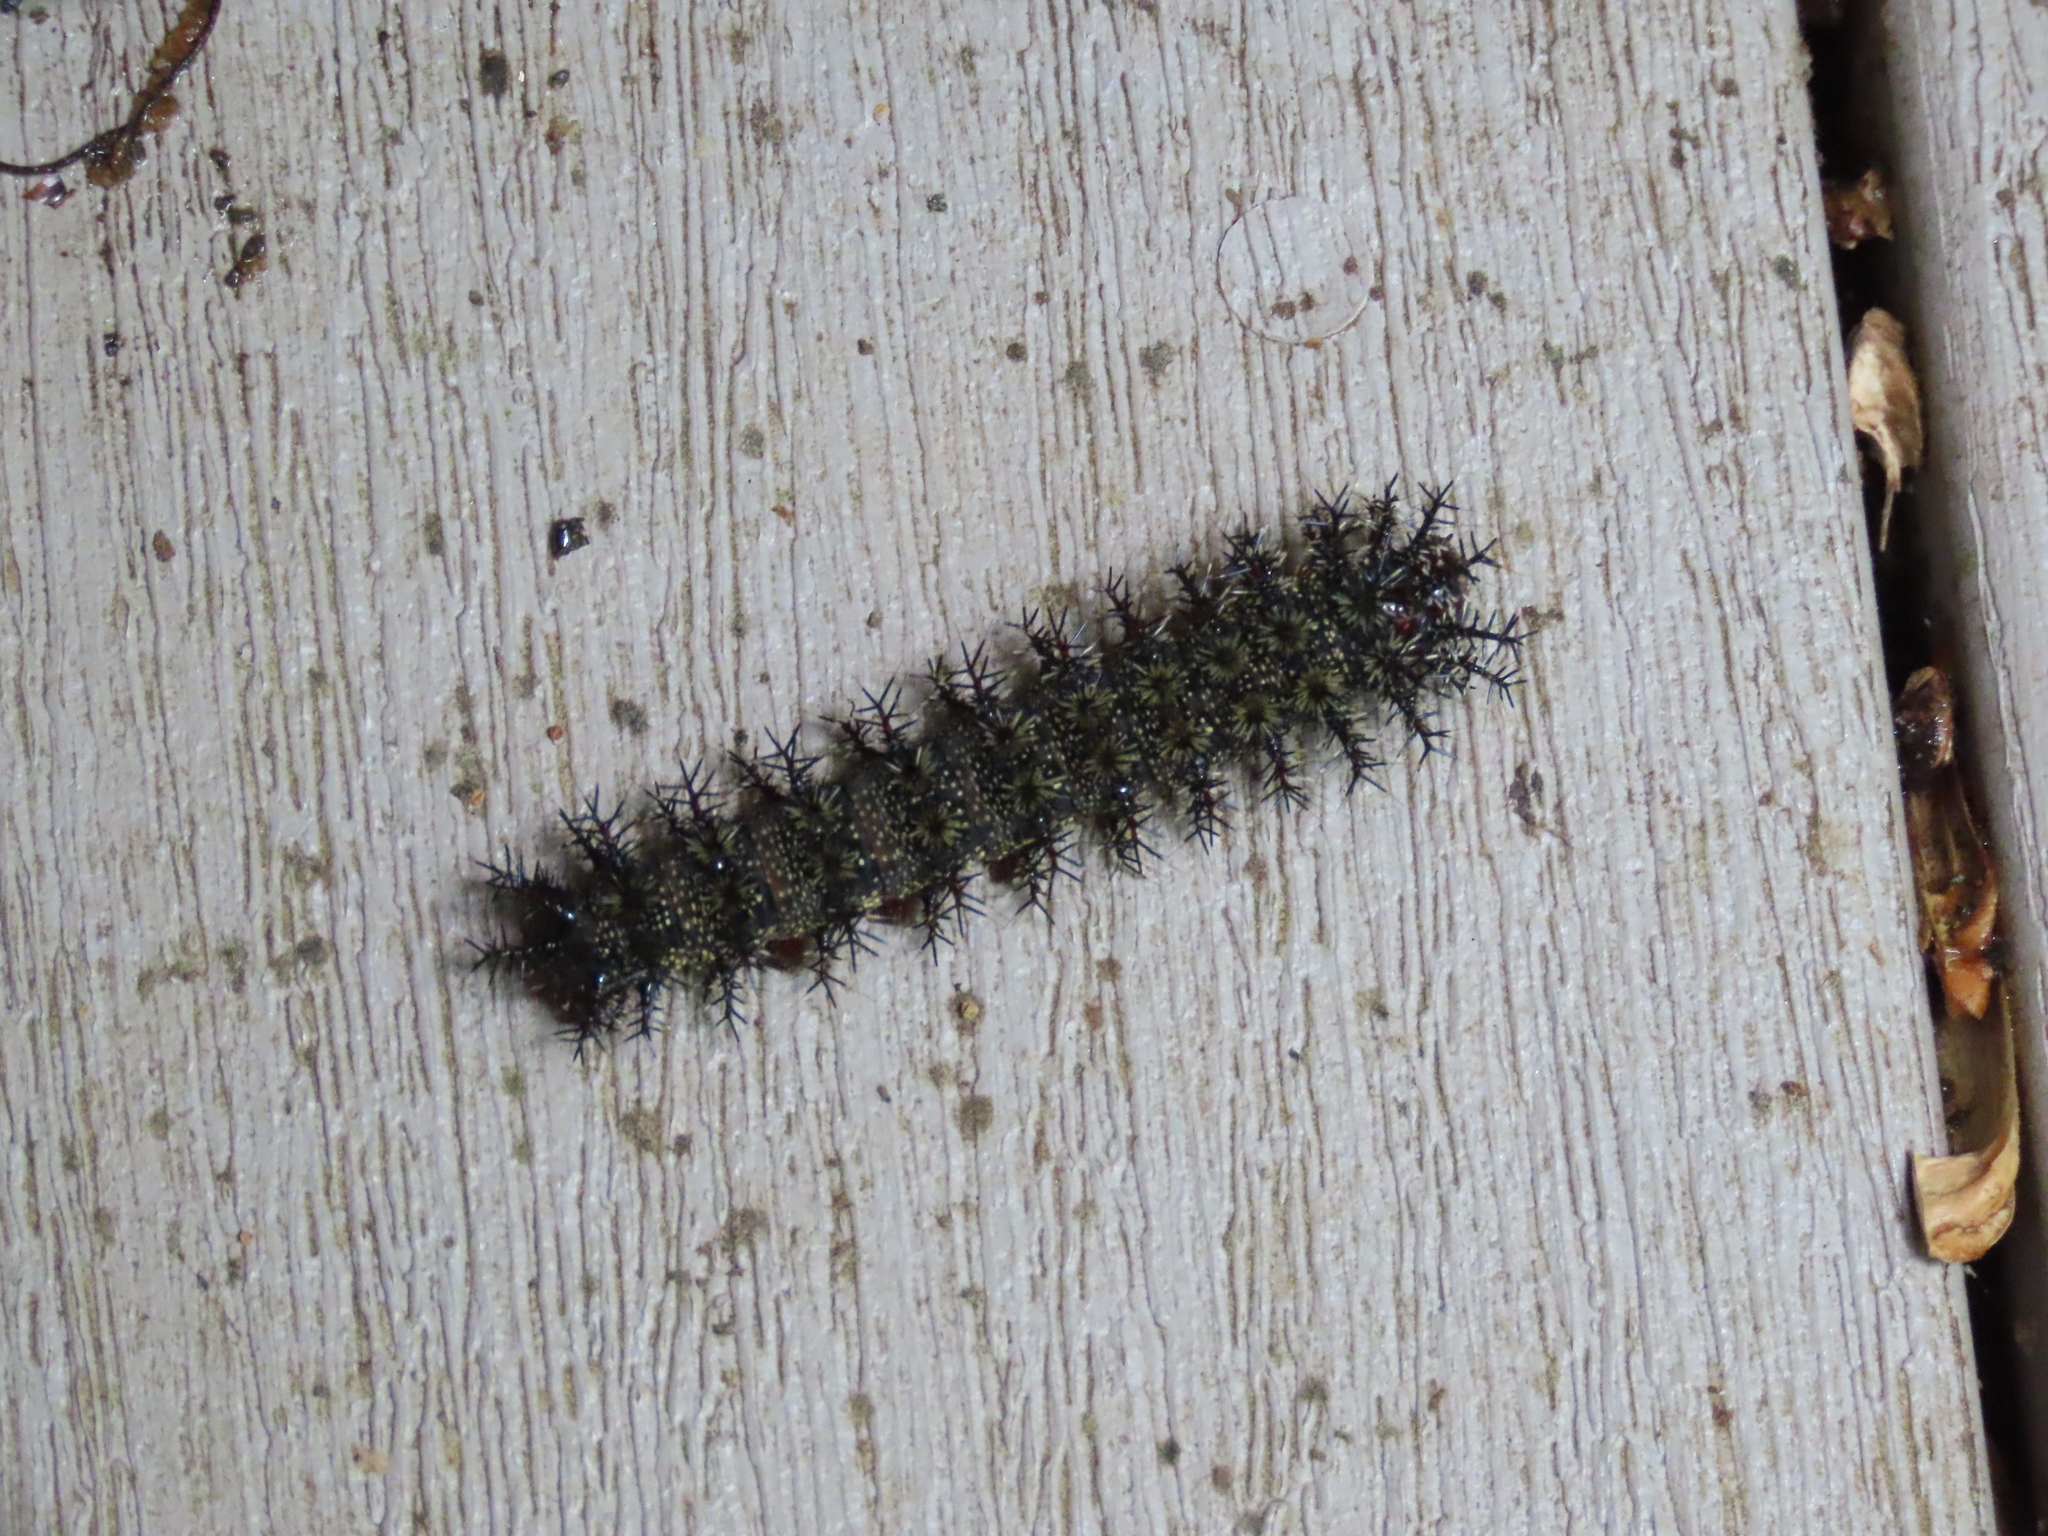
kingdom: Animalia
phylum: Arthropoda
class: Insecta
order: Lepidoptera
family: Saturniidae
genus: Hemileuca
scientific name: Hemileuca maia
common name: Eastern buckmoth
